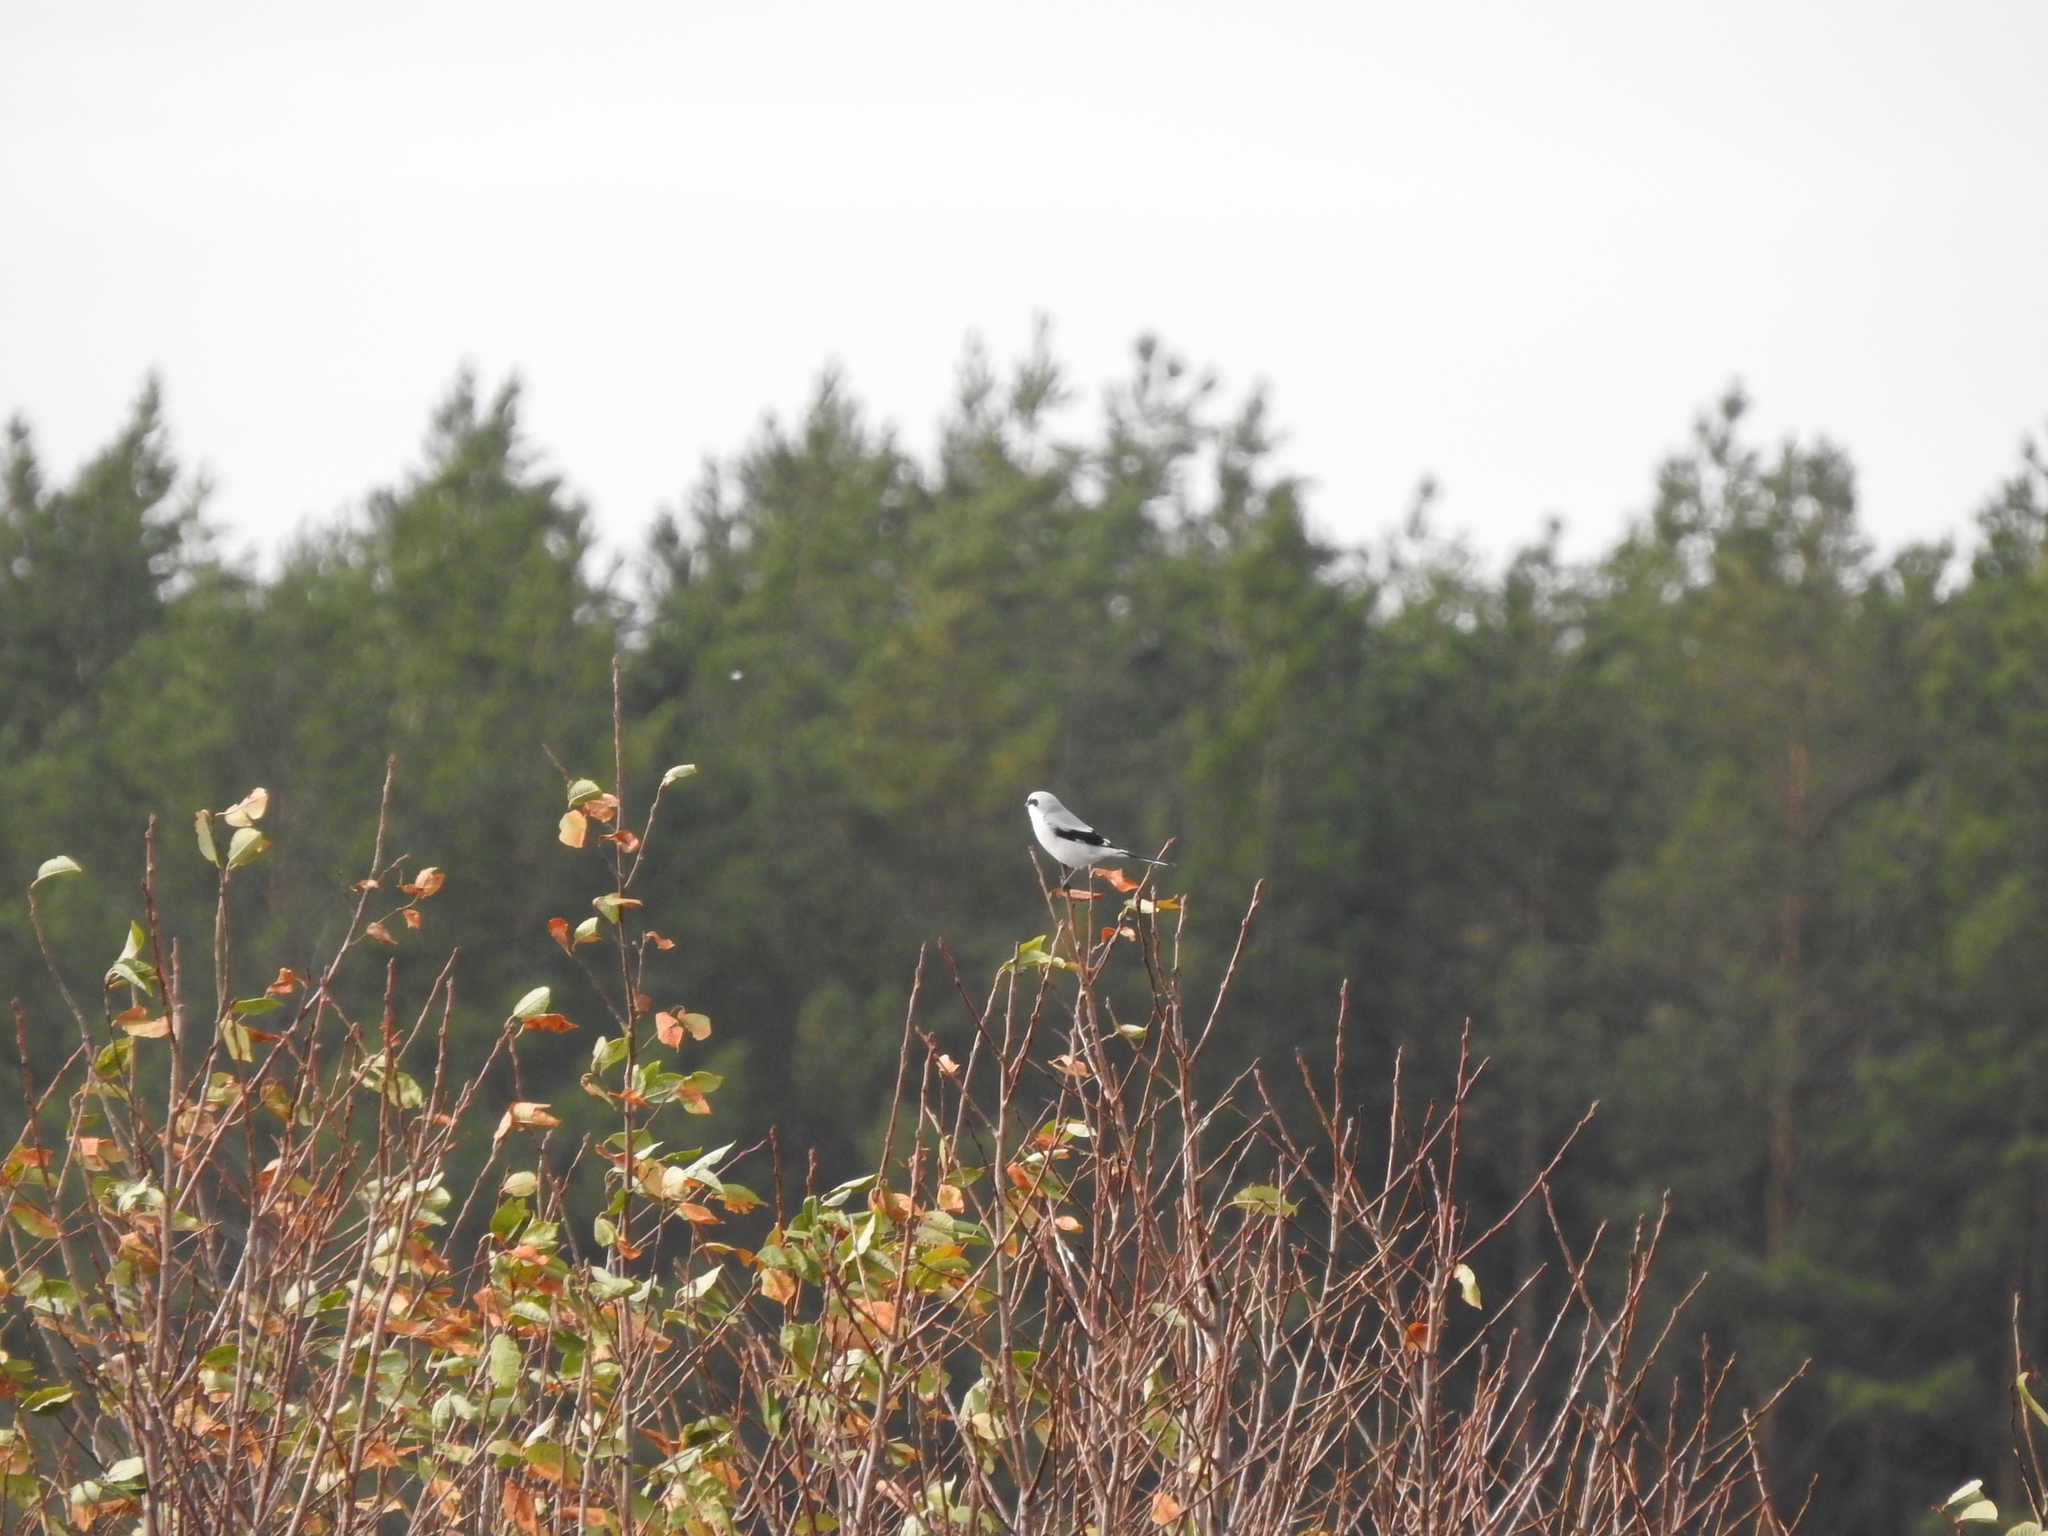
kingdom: Animalia
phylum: Chordata
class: Aves
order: Passeriformes
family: Laniidae
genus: Lanius
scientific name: Lanius excubitor
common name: Great grey shrike
